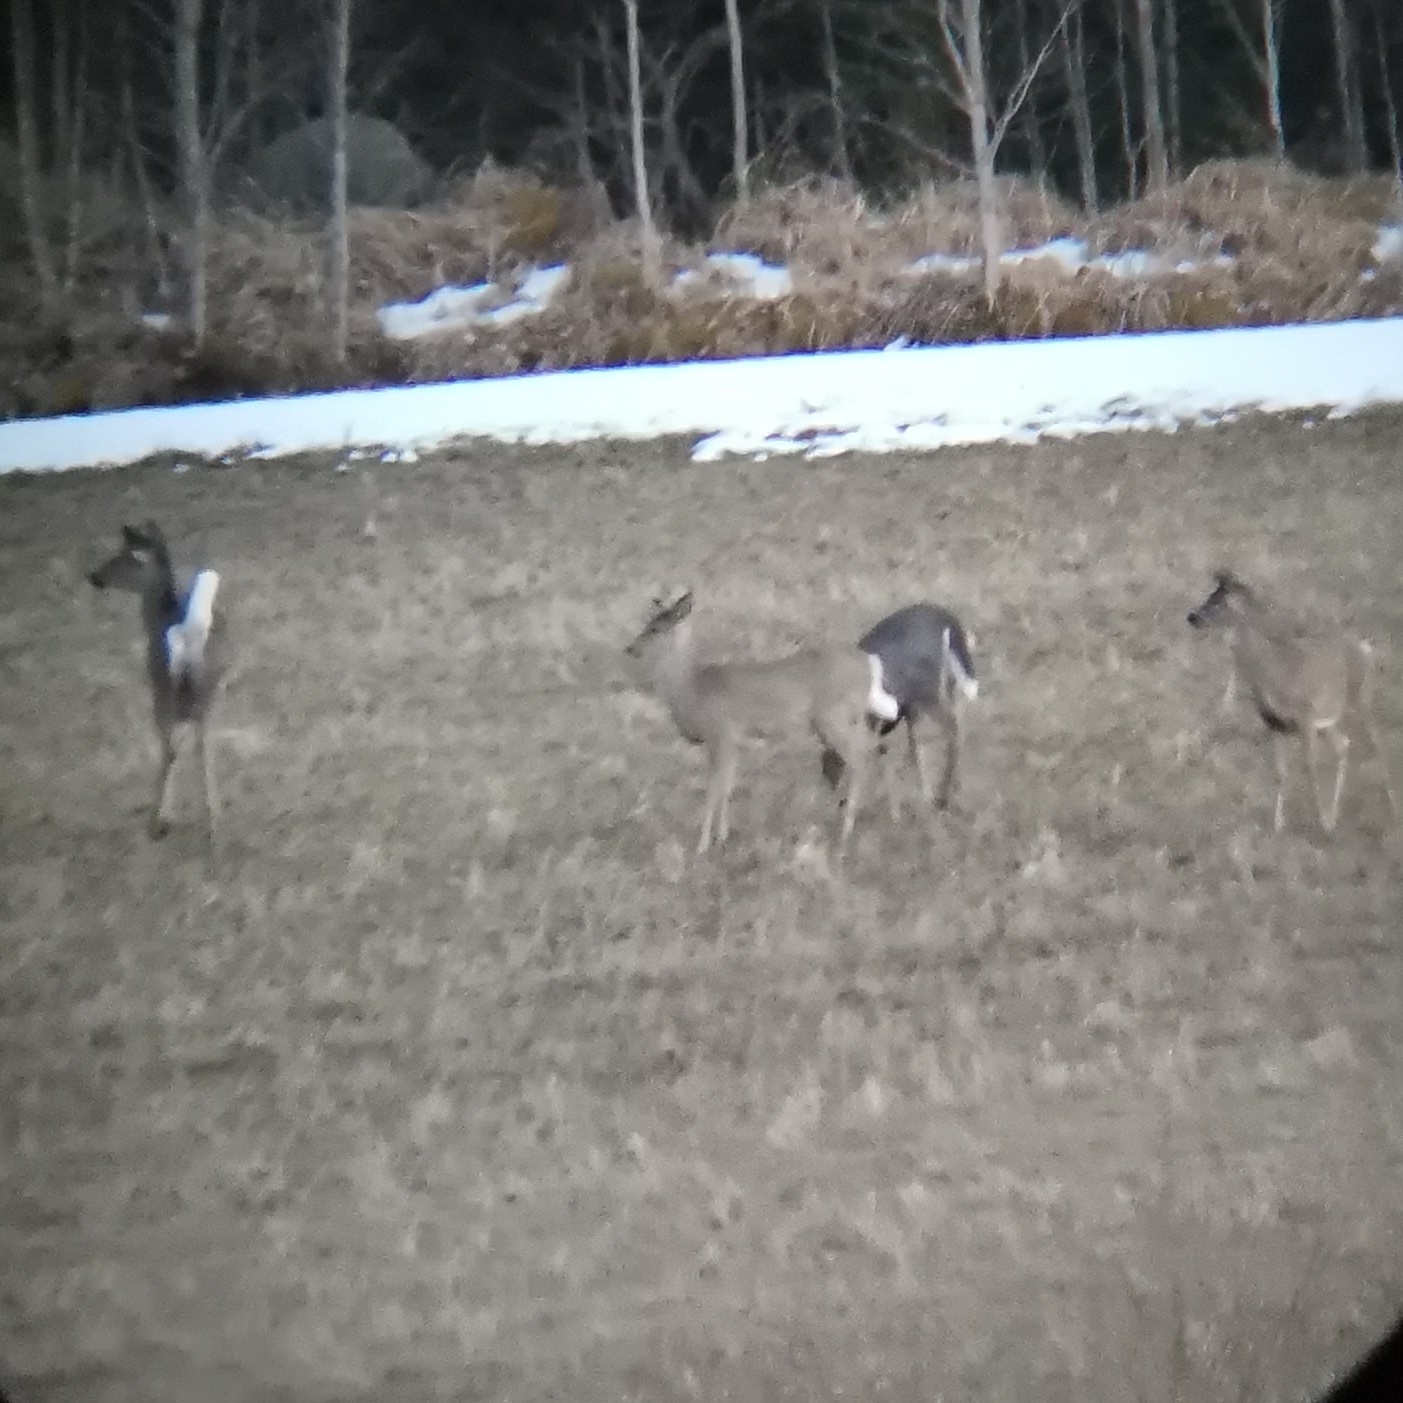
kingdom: Animalia
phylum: Chordata
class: Mammalia
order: Artiodactyla
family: Cervidae
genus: Odocoileus
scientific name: Odocoileus virginianus
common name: White-tailed deer
